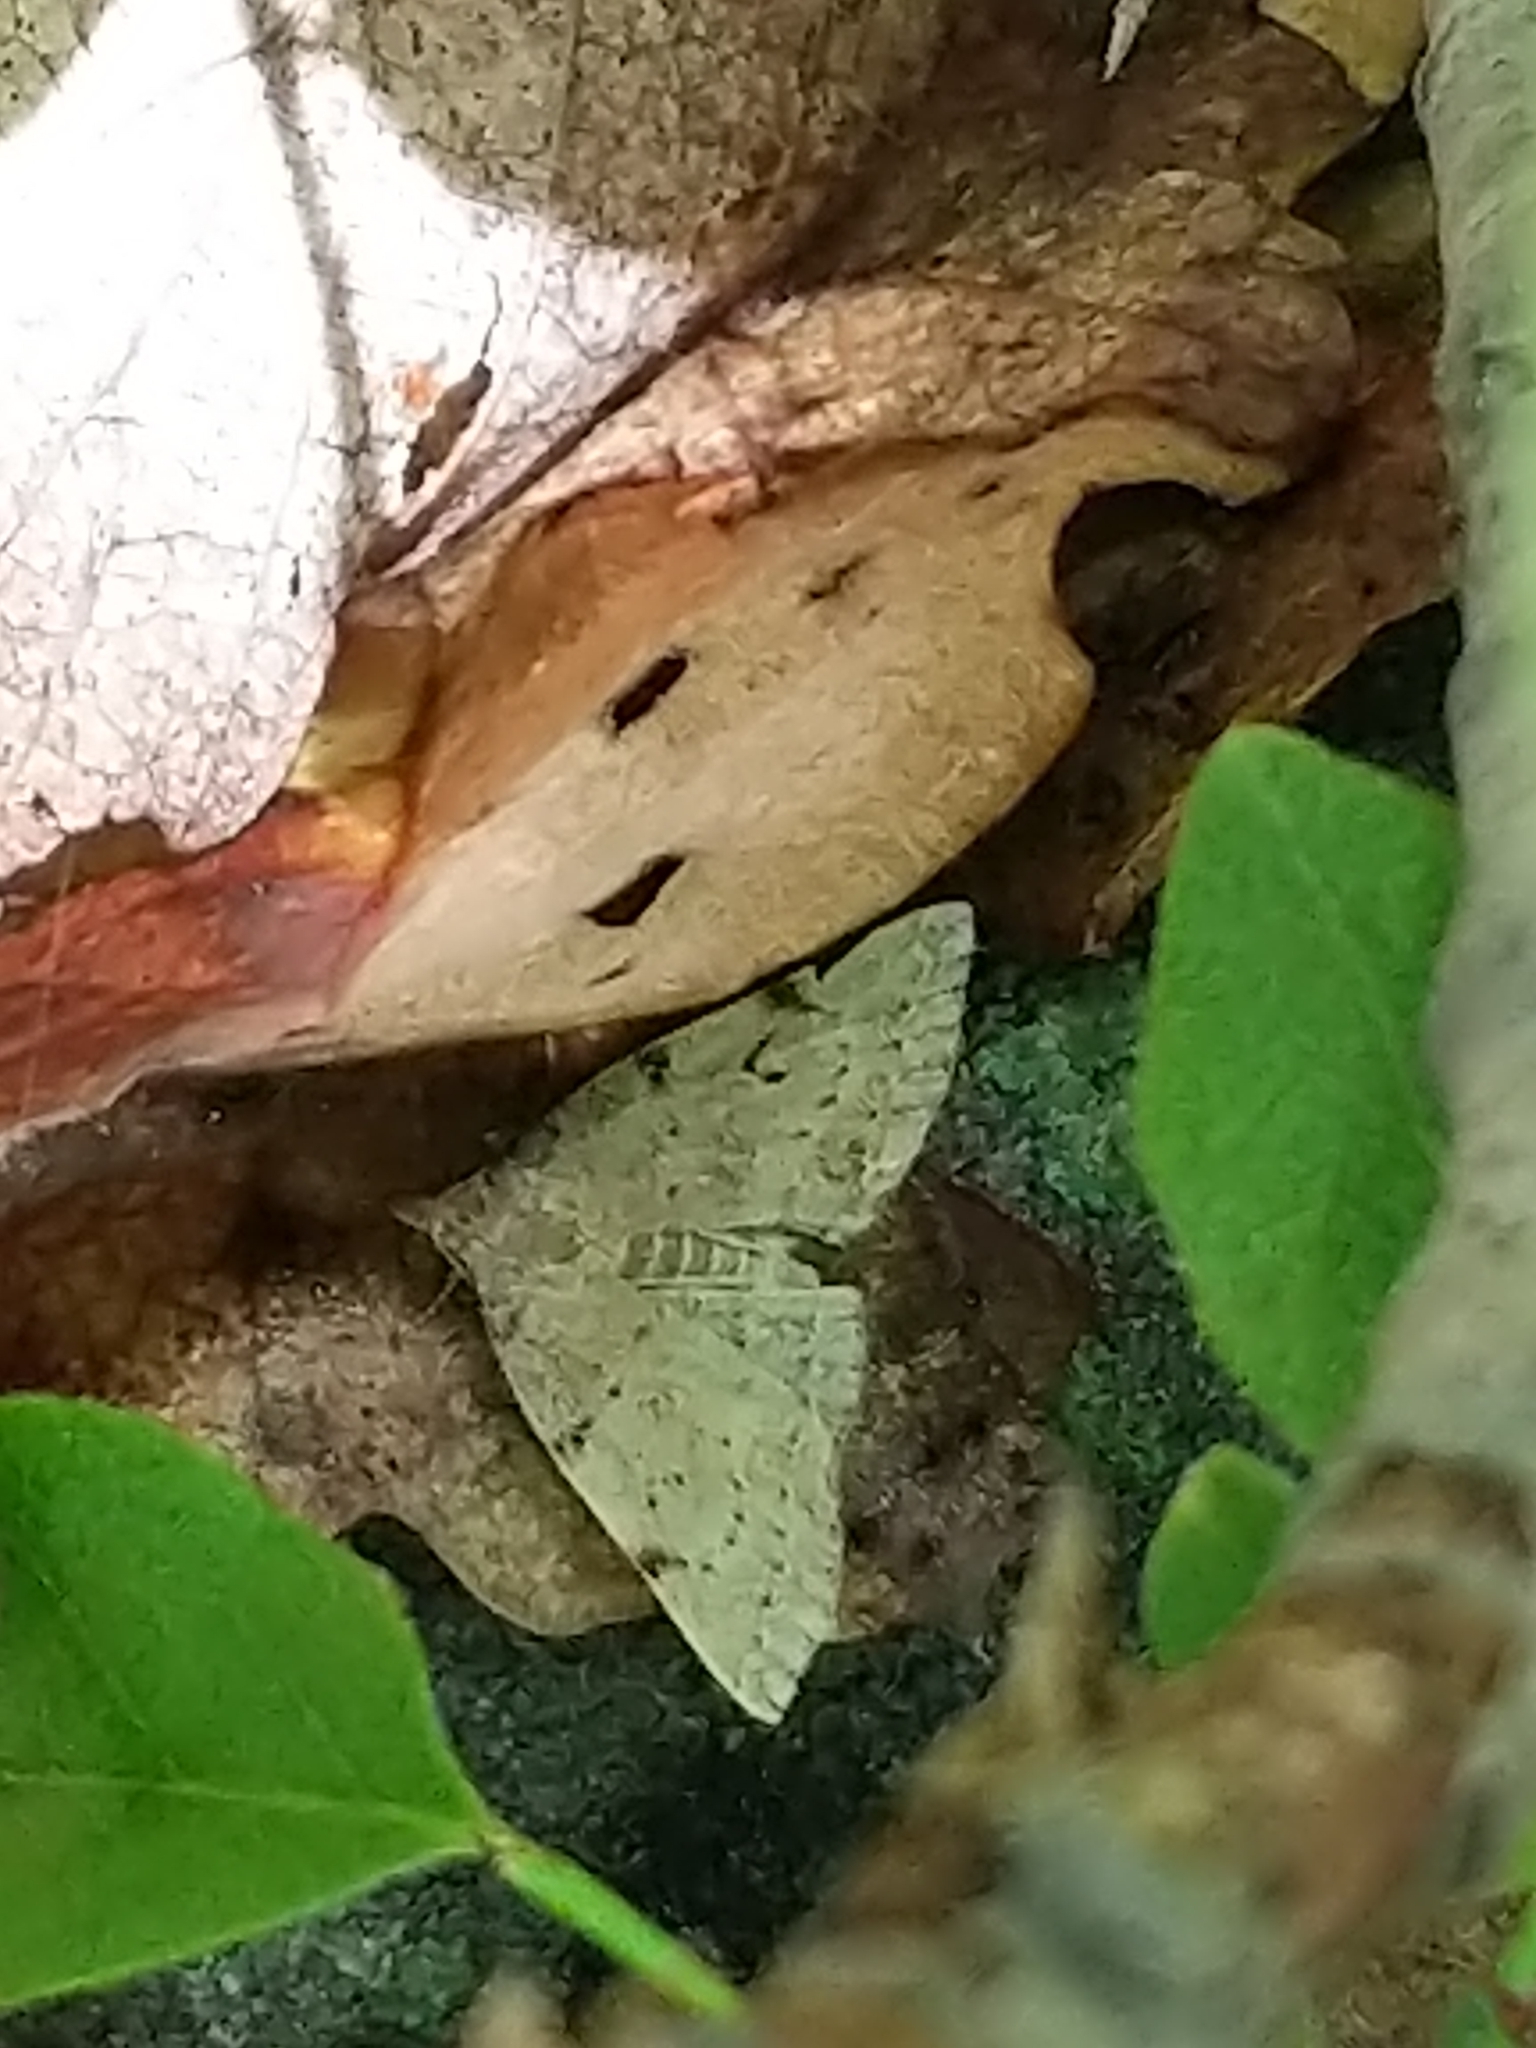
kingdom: Animalia
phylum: Arthropoda
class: Insecta
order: Lepidoptera
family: Erebidae
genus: Zanclognatha
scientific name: Zanclognatha lituralis
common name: Lettered fan-foot
